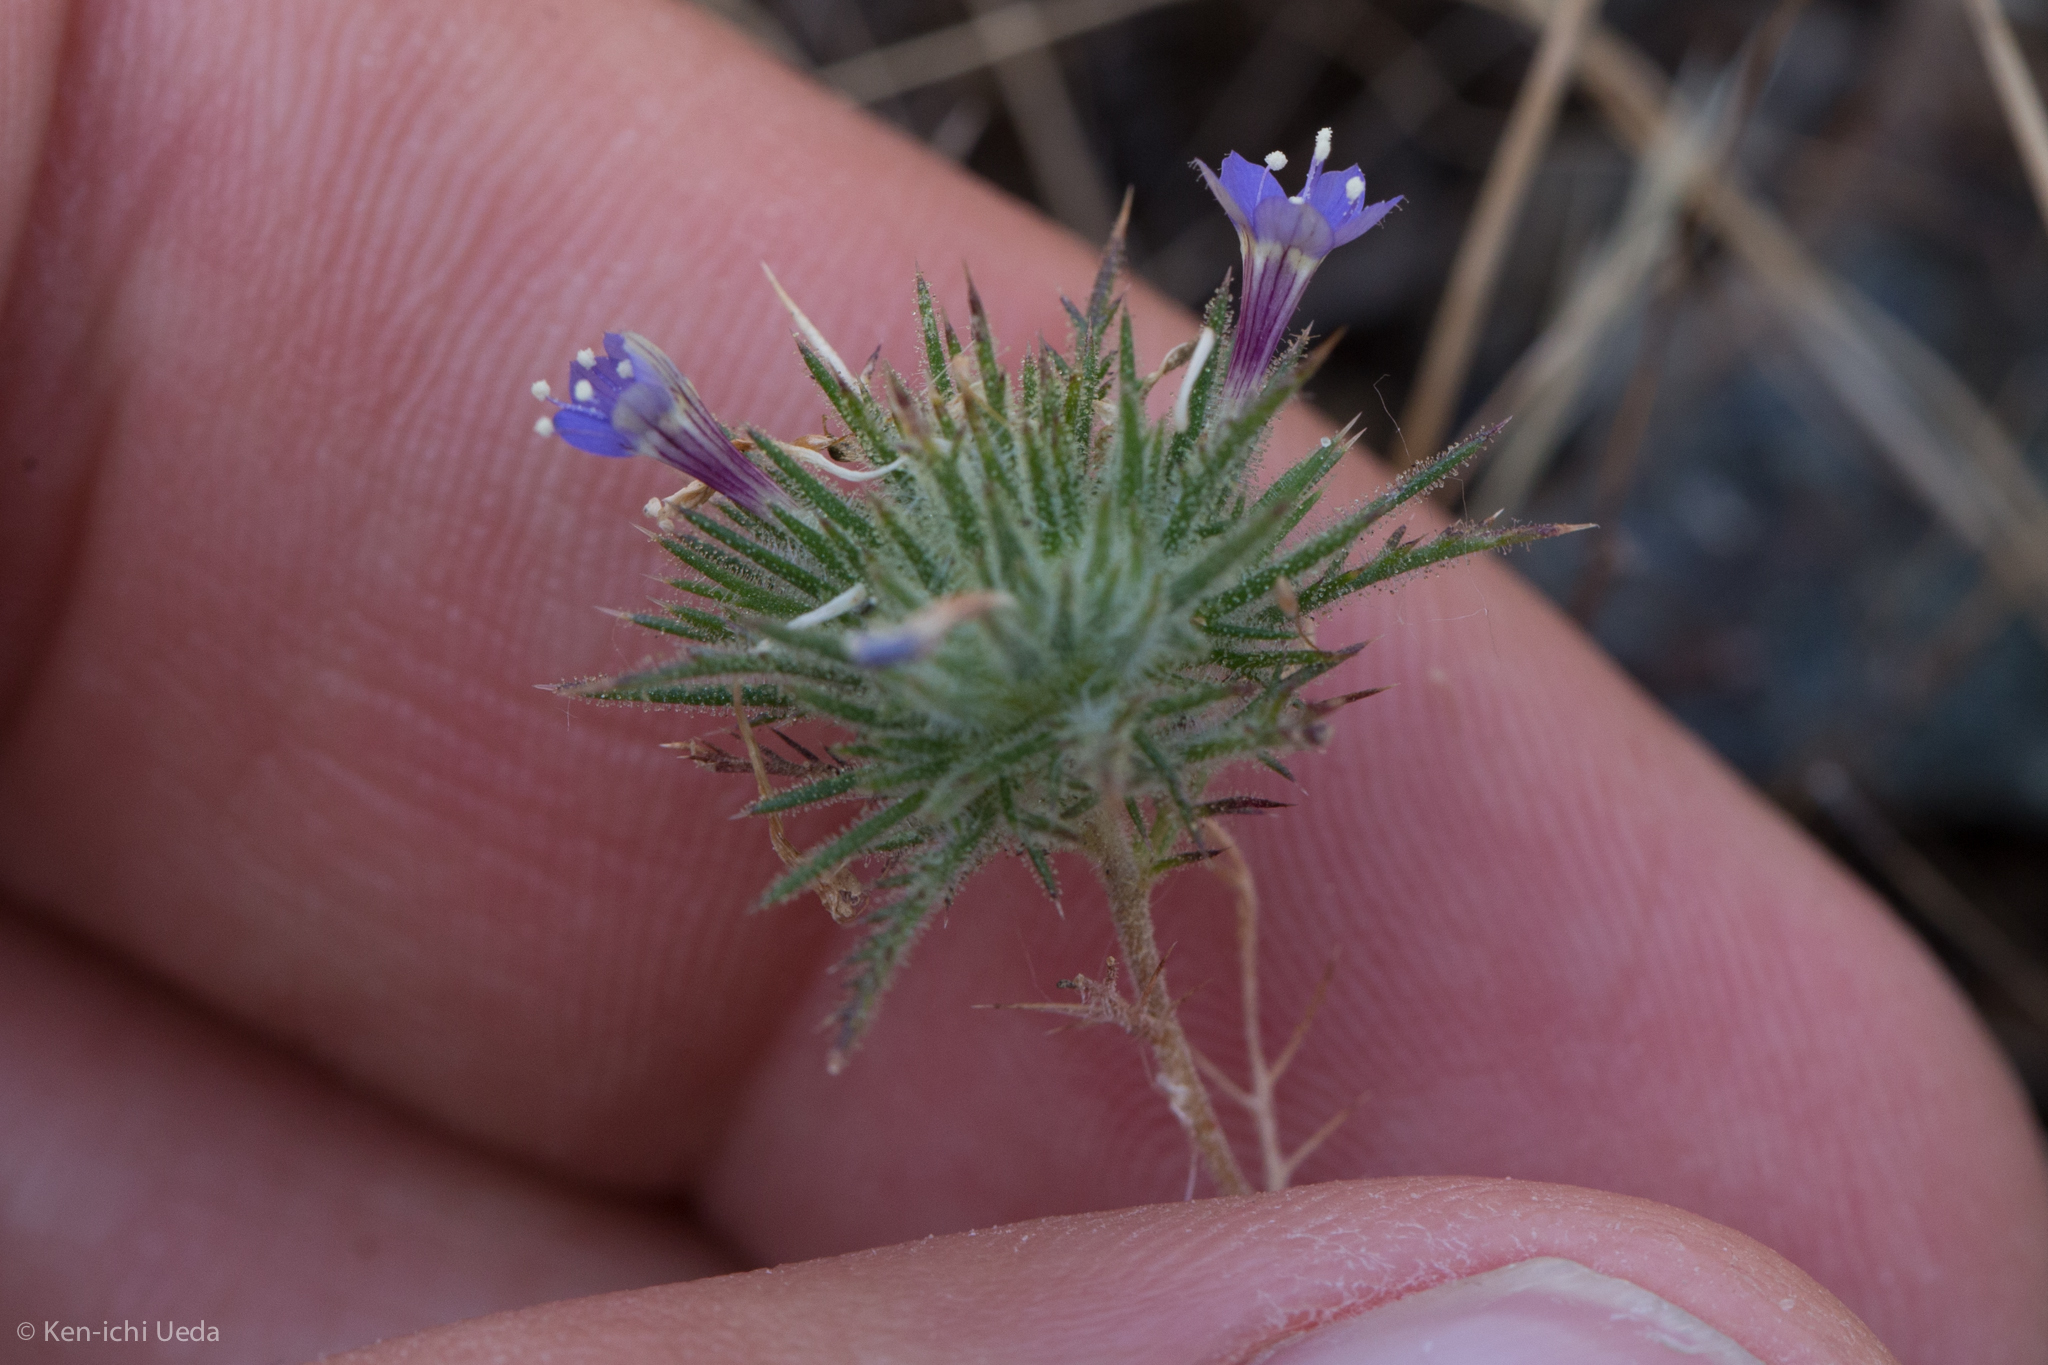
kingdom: Plantae
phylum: Tracheophyta
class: Magnoliopsida
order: Ericales
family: Polemoniaceae
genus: Navarretia
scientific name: Navarretia pubescens
